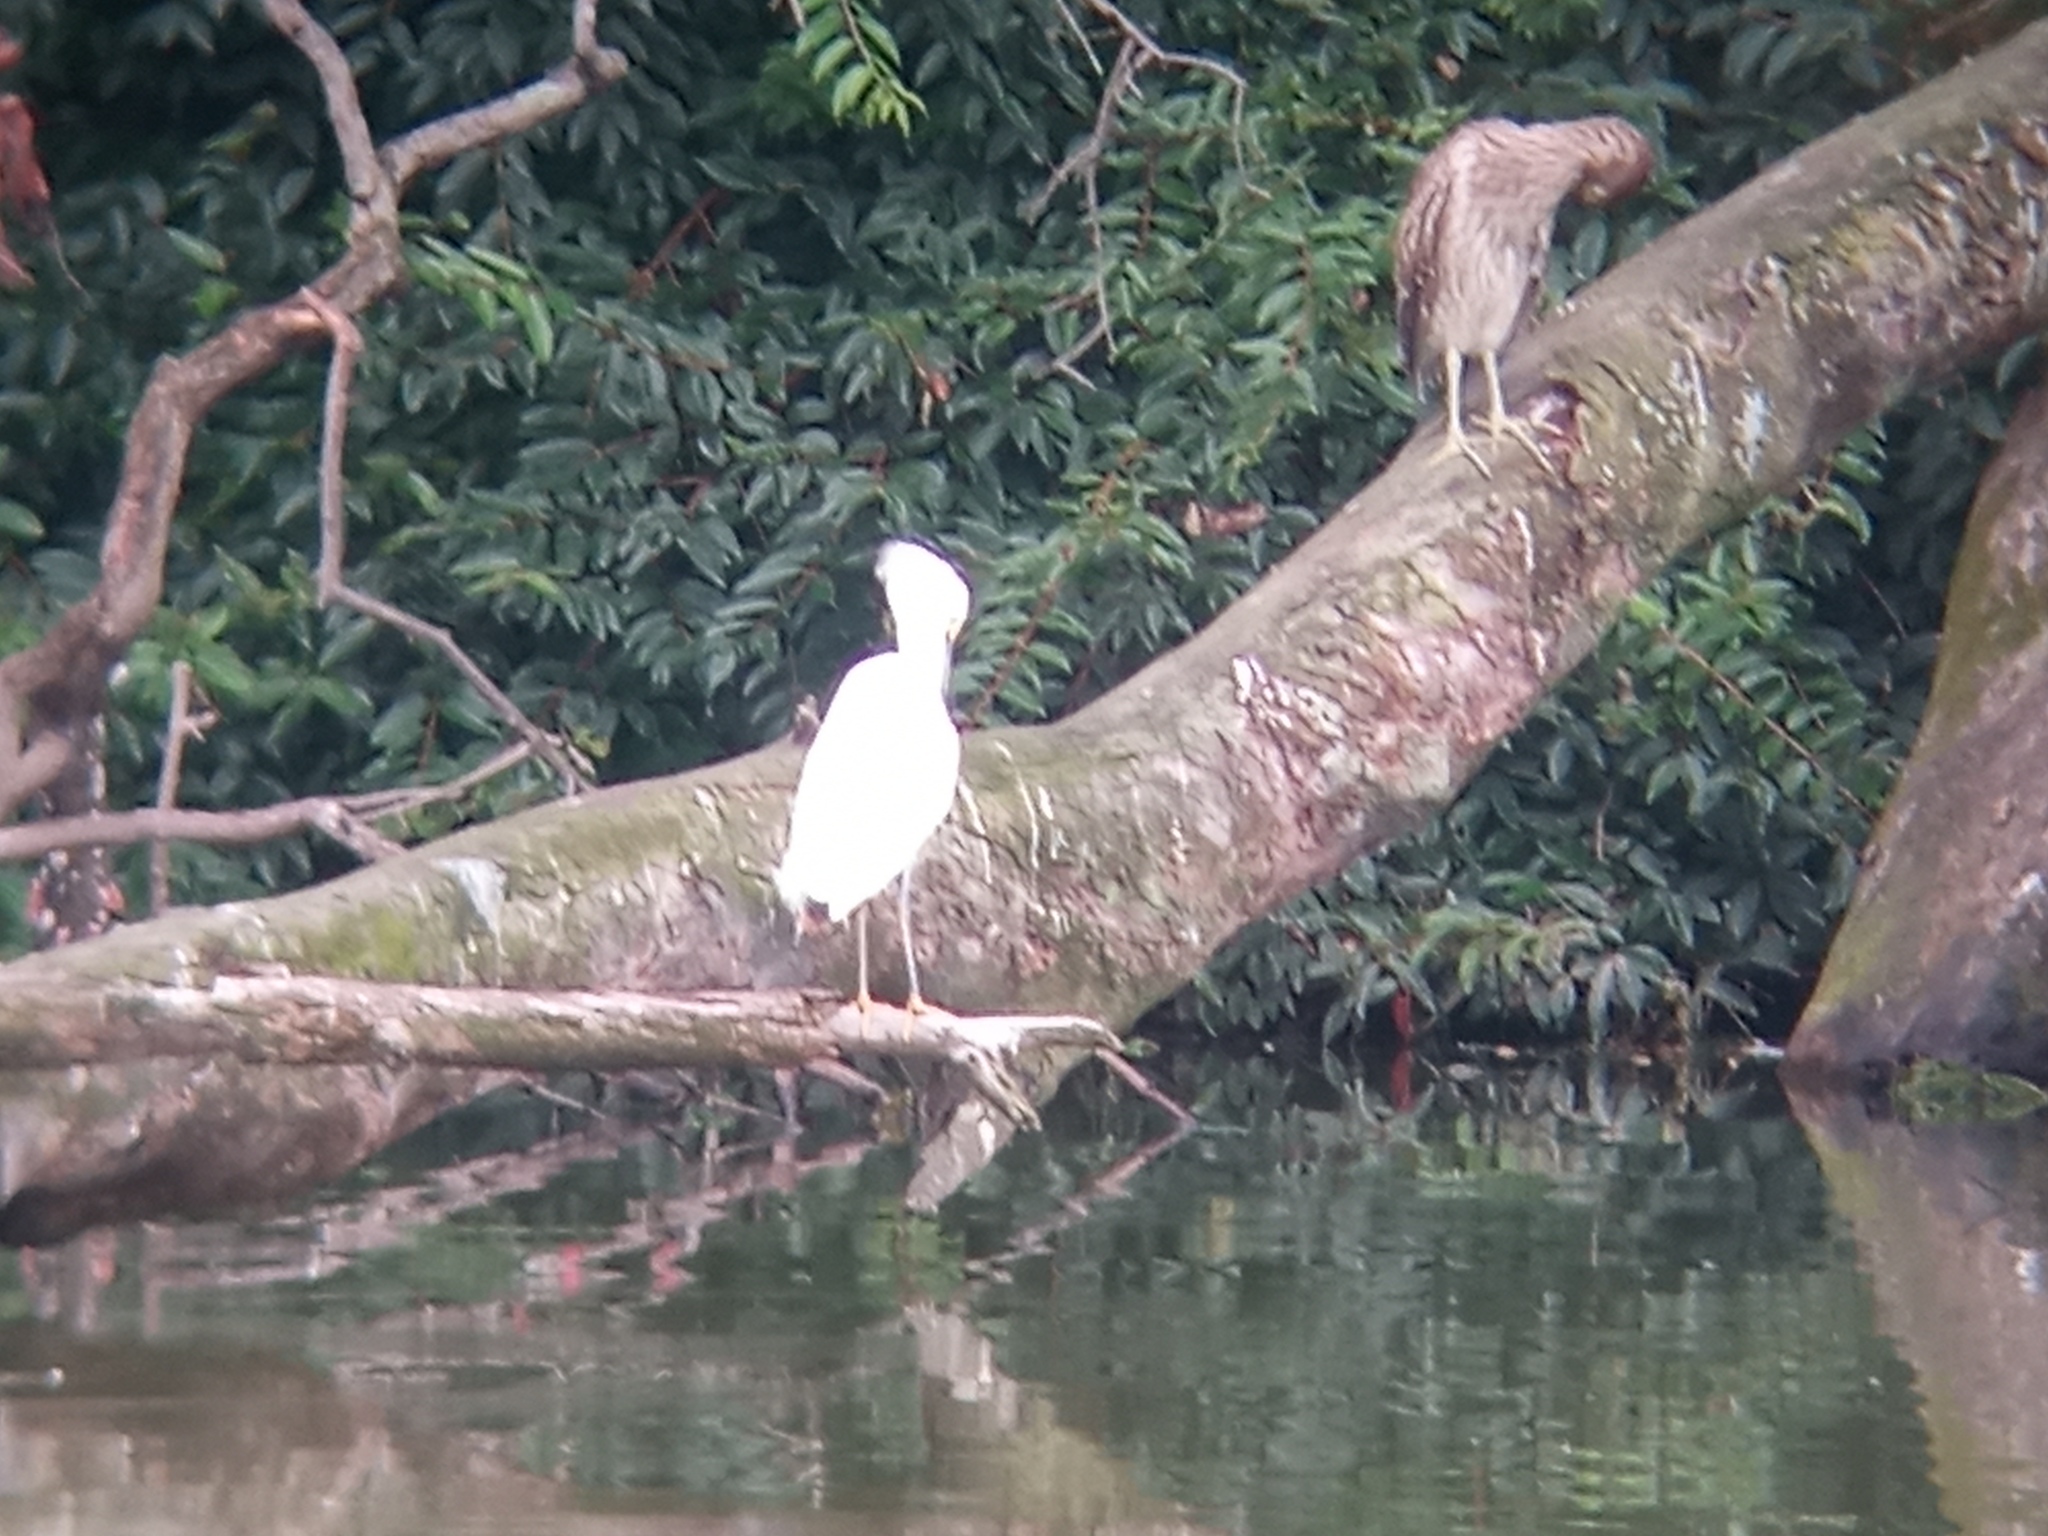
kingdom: Animalia
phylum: Chordata
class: Aves
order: Pelecaniformes
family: Ardeidae
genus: Nycticorax
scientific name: Nycticorax nycticorax
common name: Black-crowned night heron
